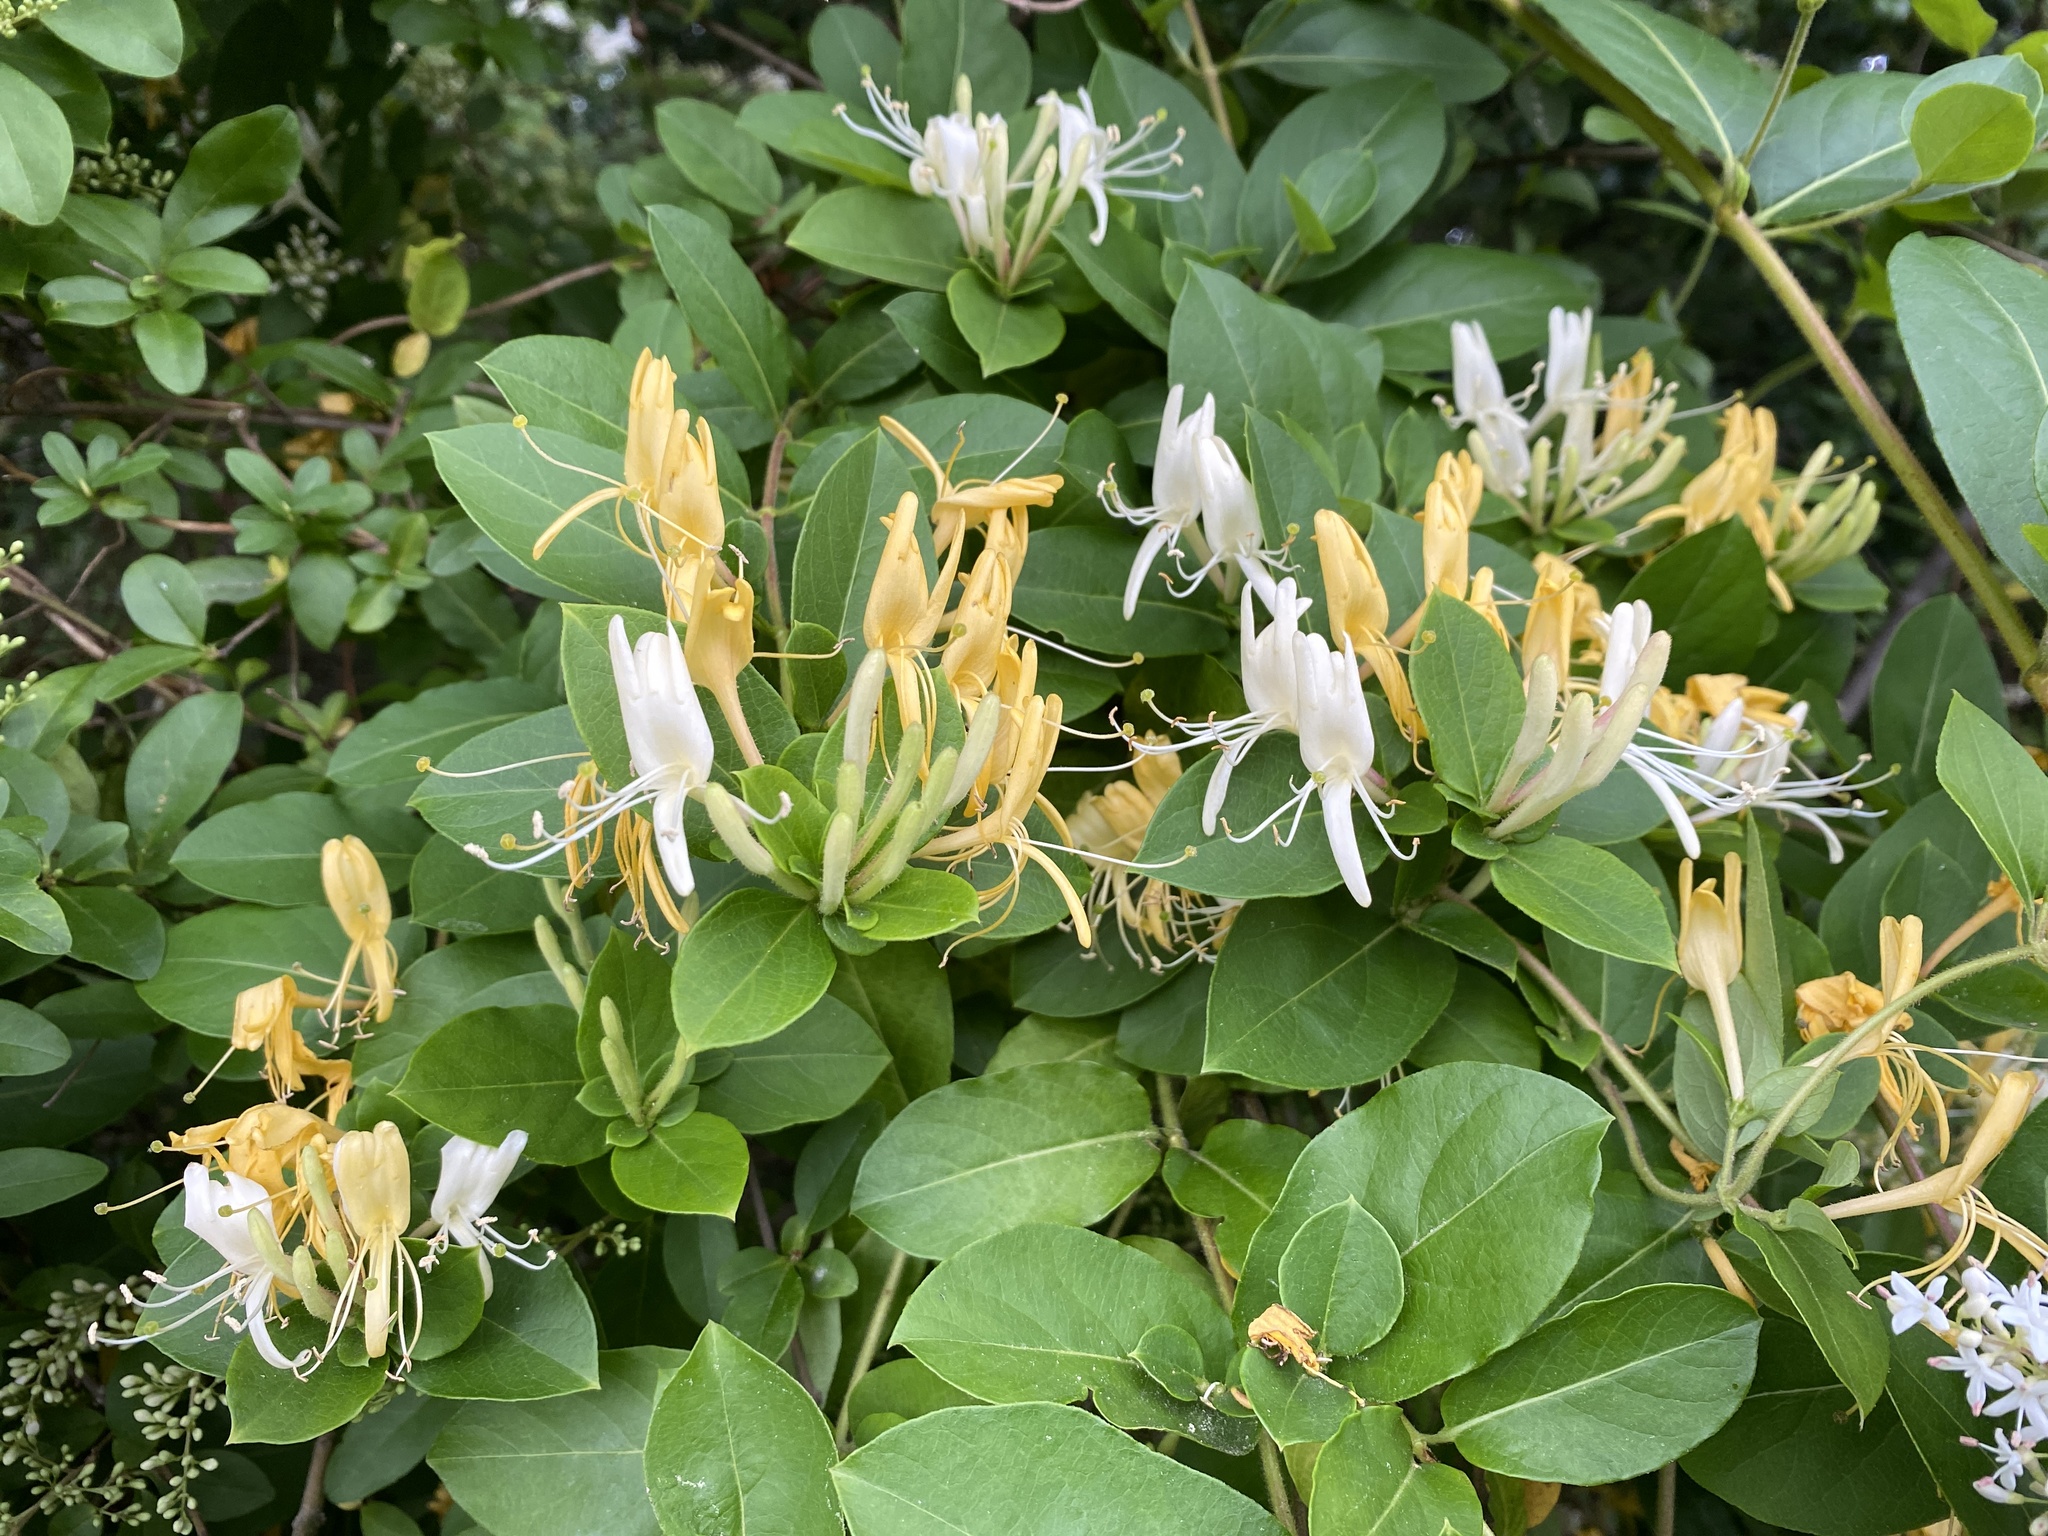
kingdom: Plantae
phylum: Tracheophyta
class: Magnoliopsida
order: Dipsacales
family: Caprifoliaceae
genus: Lonicera
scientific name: Lonicera japonica
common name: Japanese honeysuckle
